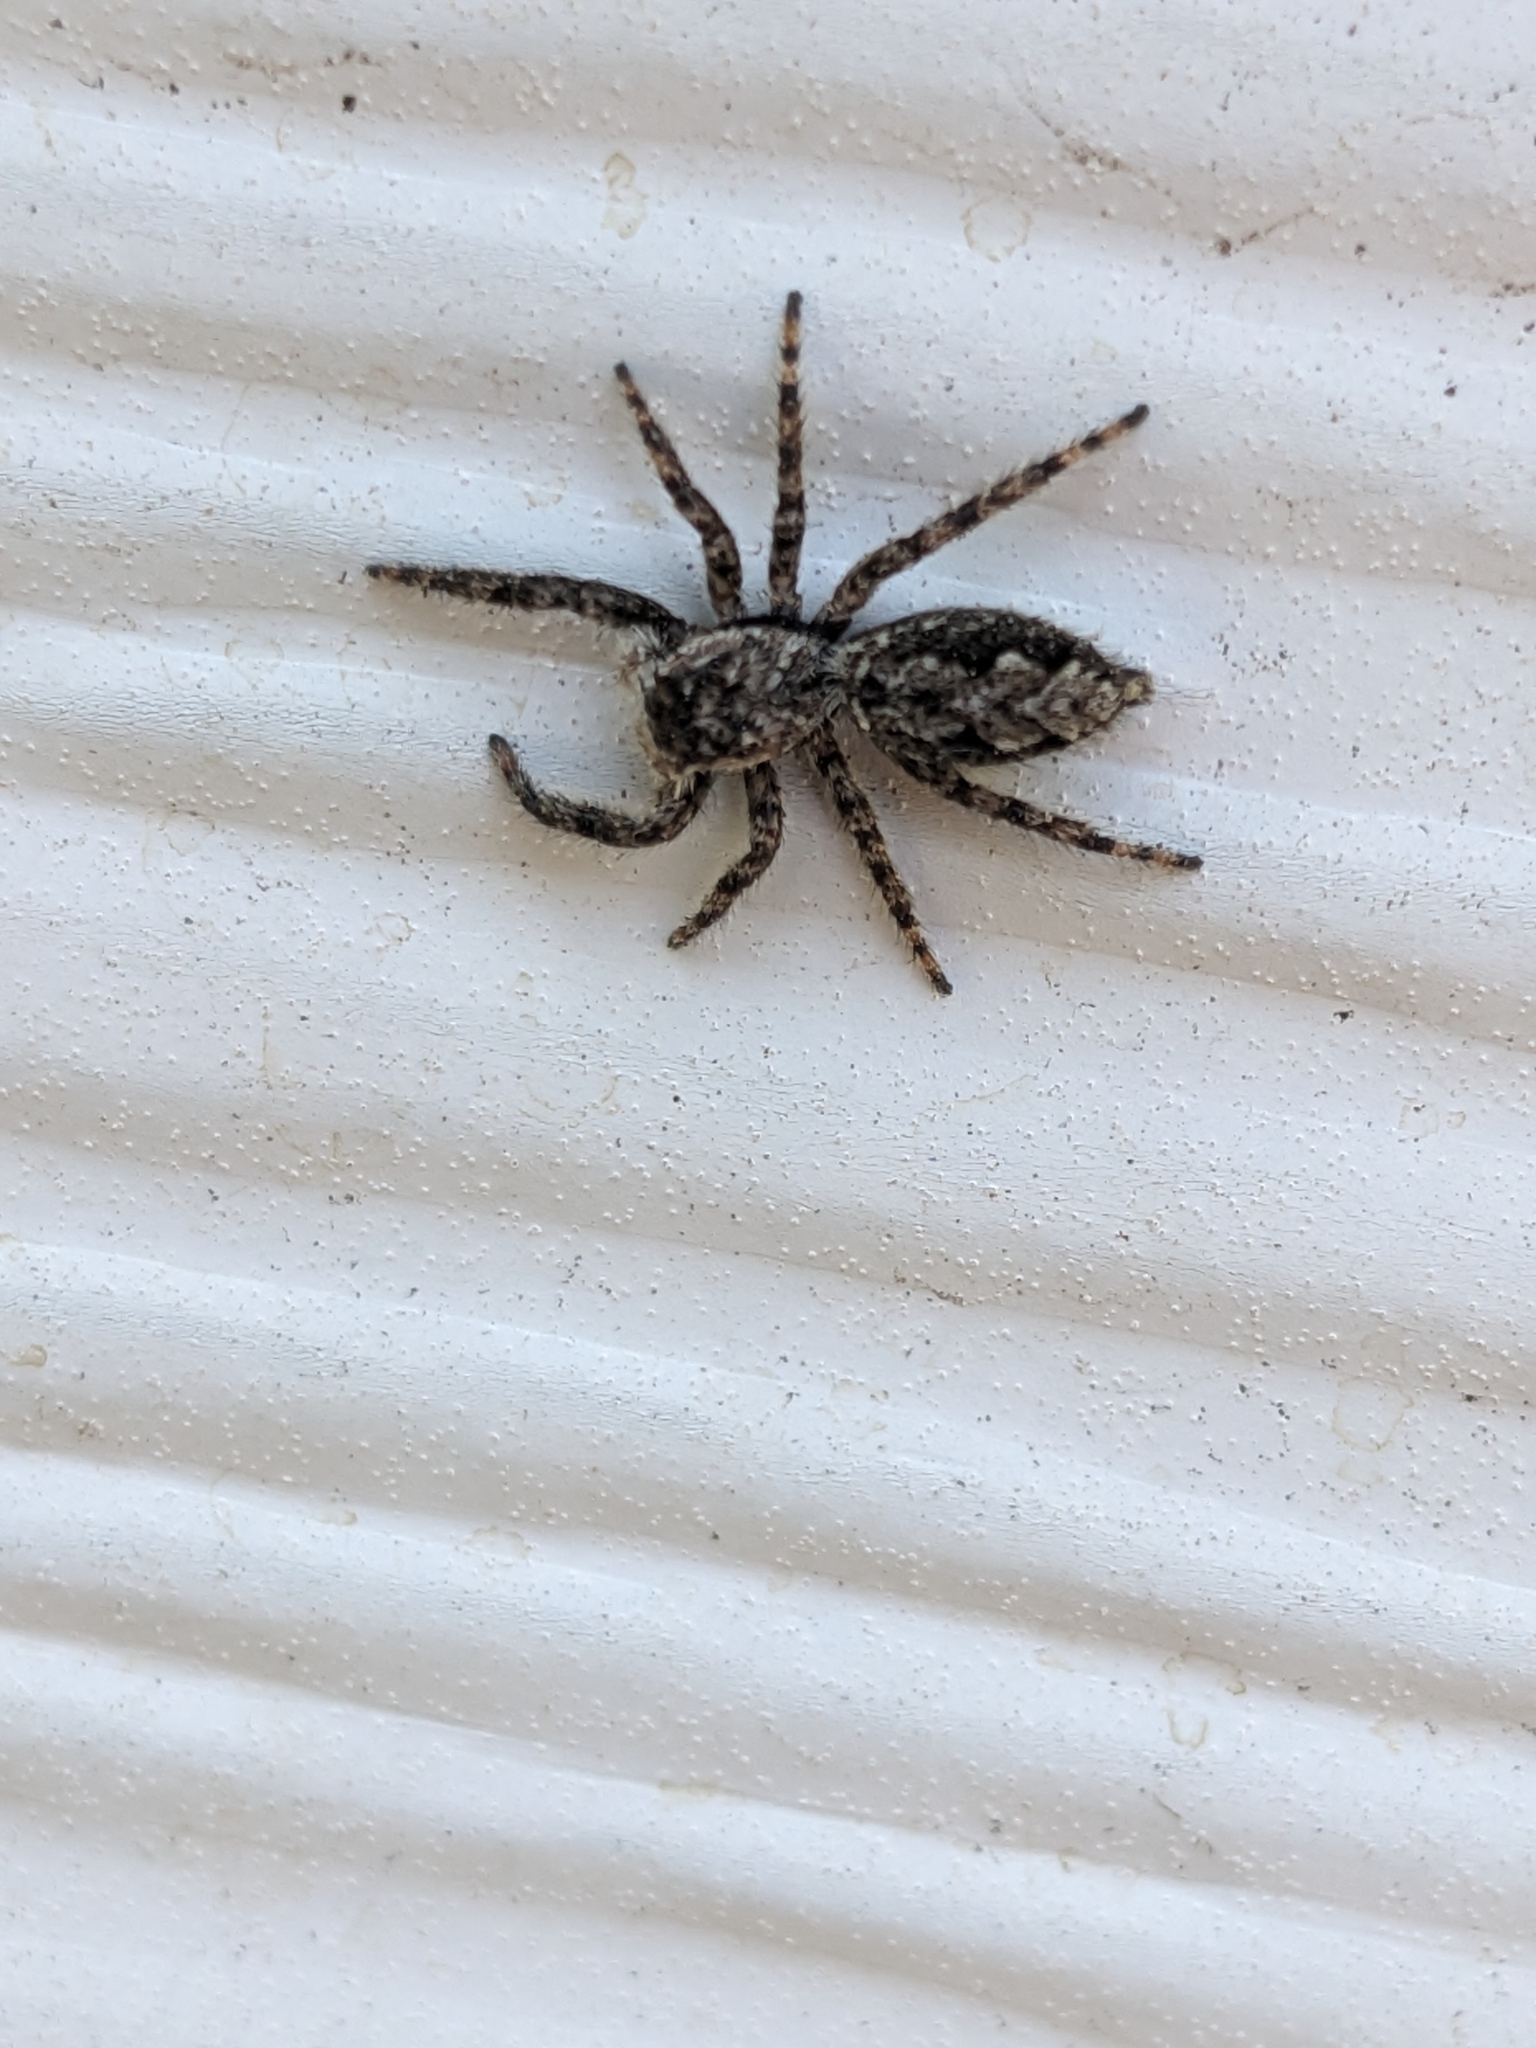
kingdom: Animalia
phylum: Arthropoda
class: Arachnida
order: Araneae
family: Salticidae
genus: Platycryptus
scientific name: Platycryptus undatus
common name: Tan jumping spider
